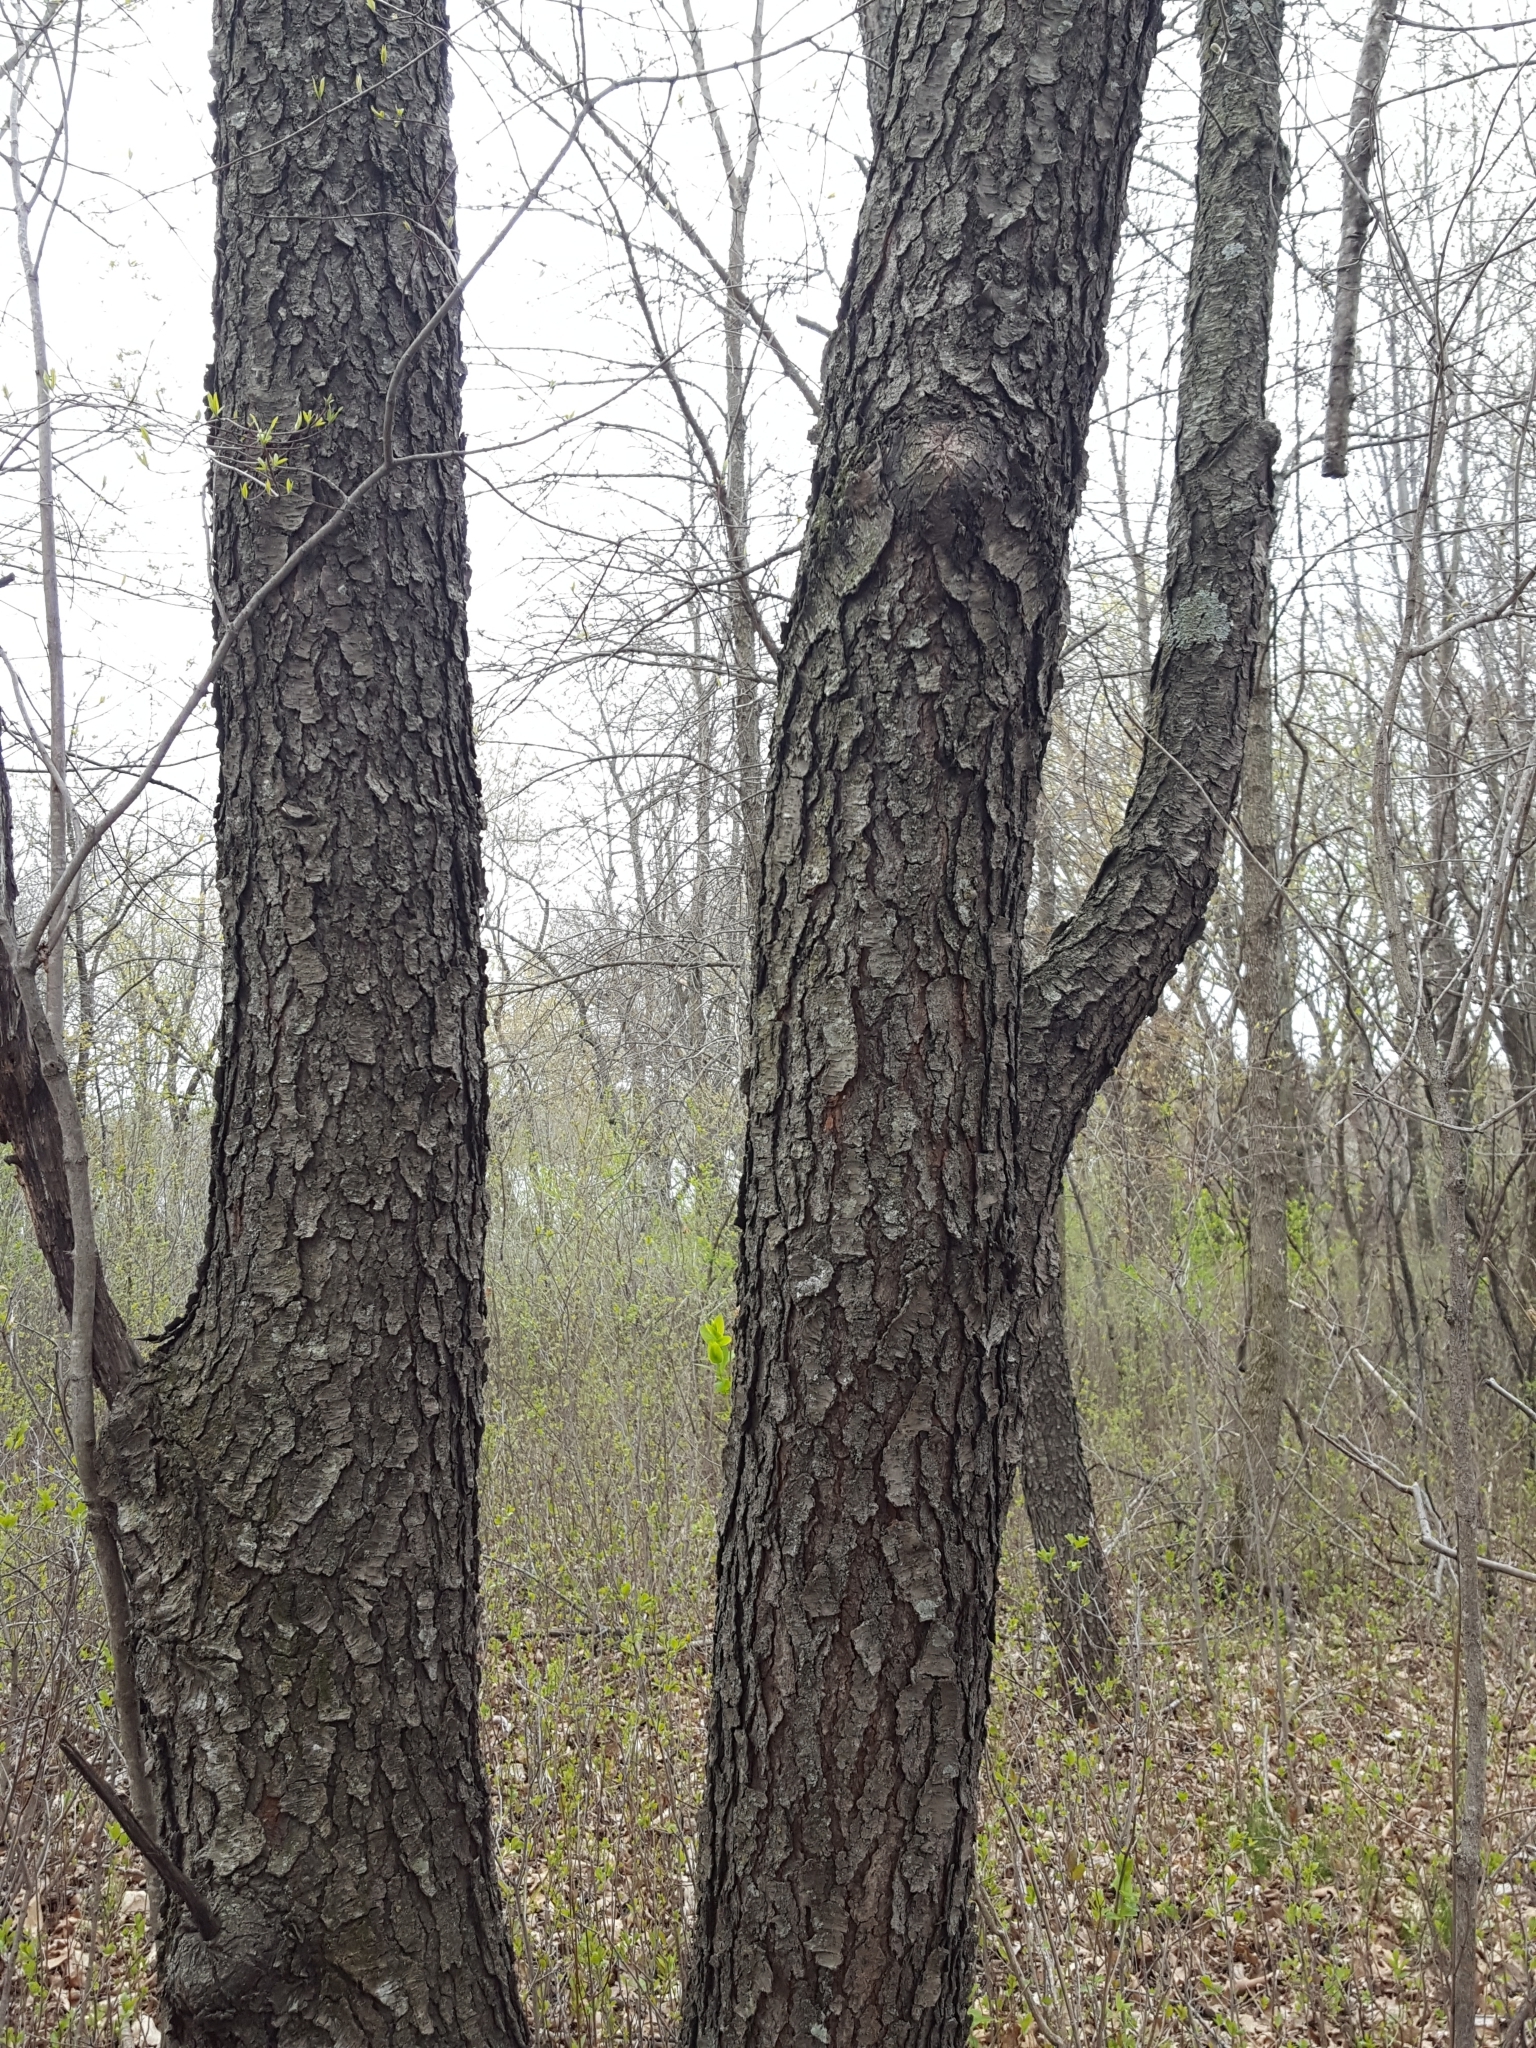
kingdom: Plantae
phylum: Tracheophyta
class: Magnoliopsida
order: Rosales
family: Rosaceae
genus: Prunus
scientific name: Prunus serotina
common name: Black cherry
